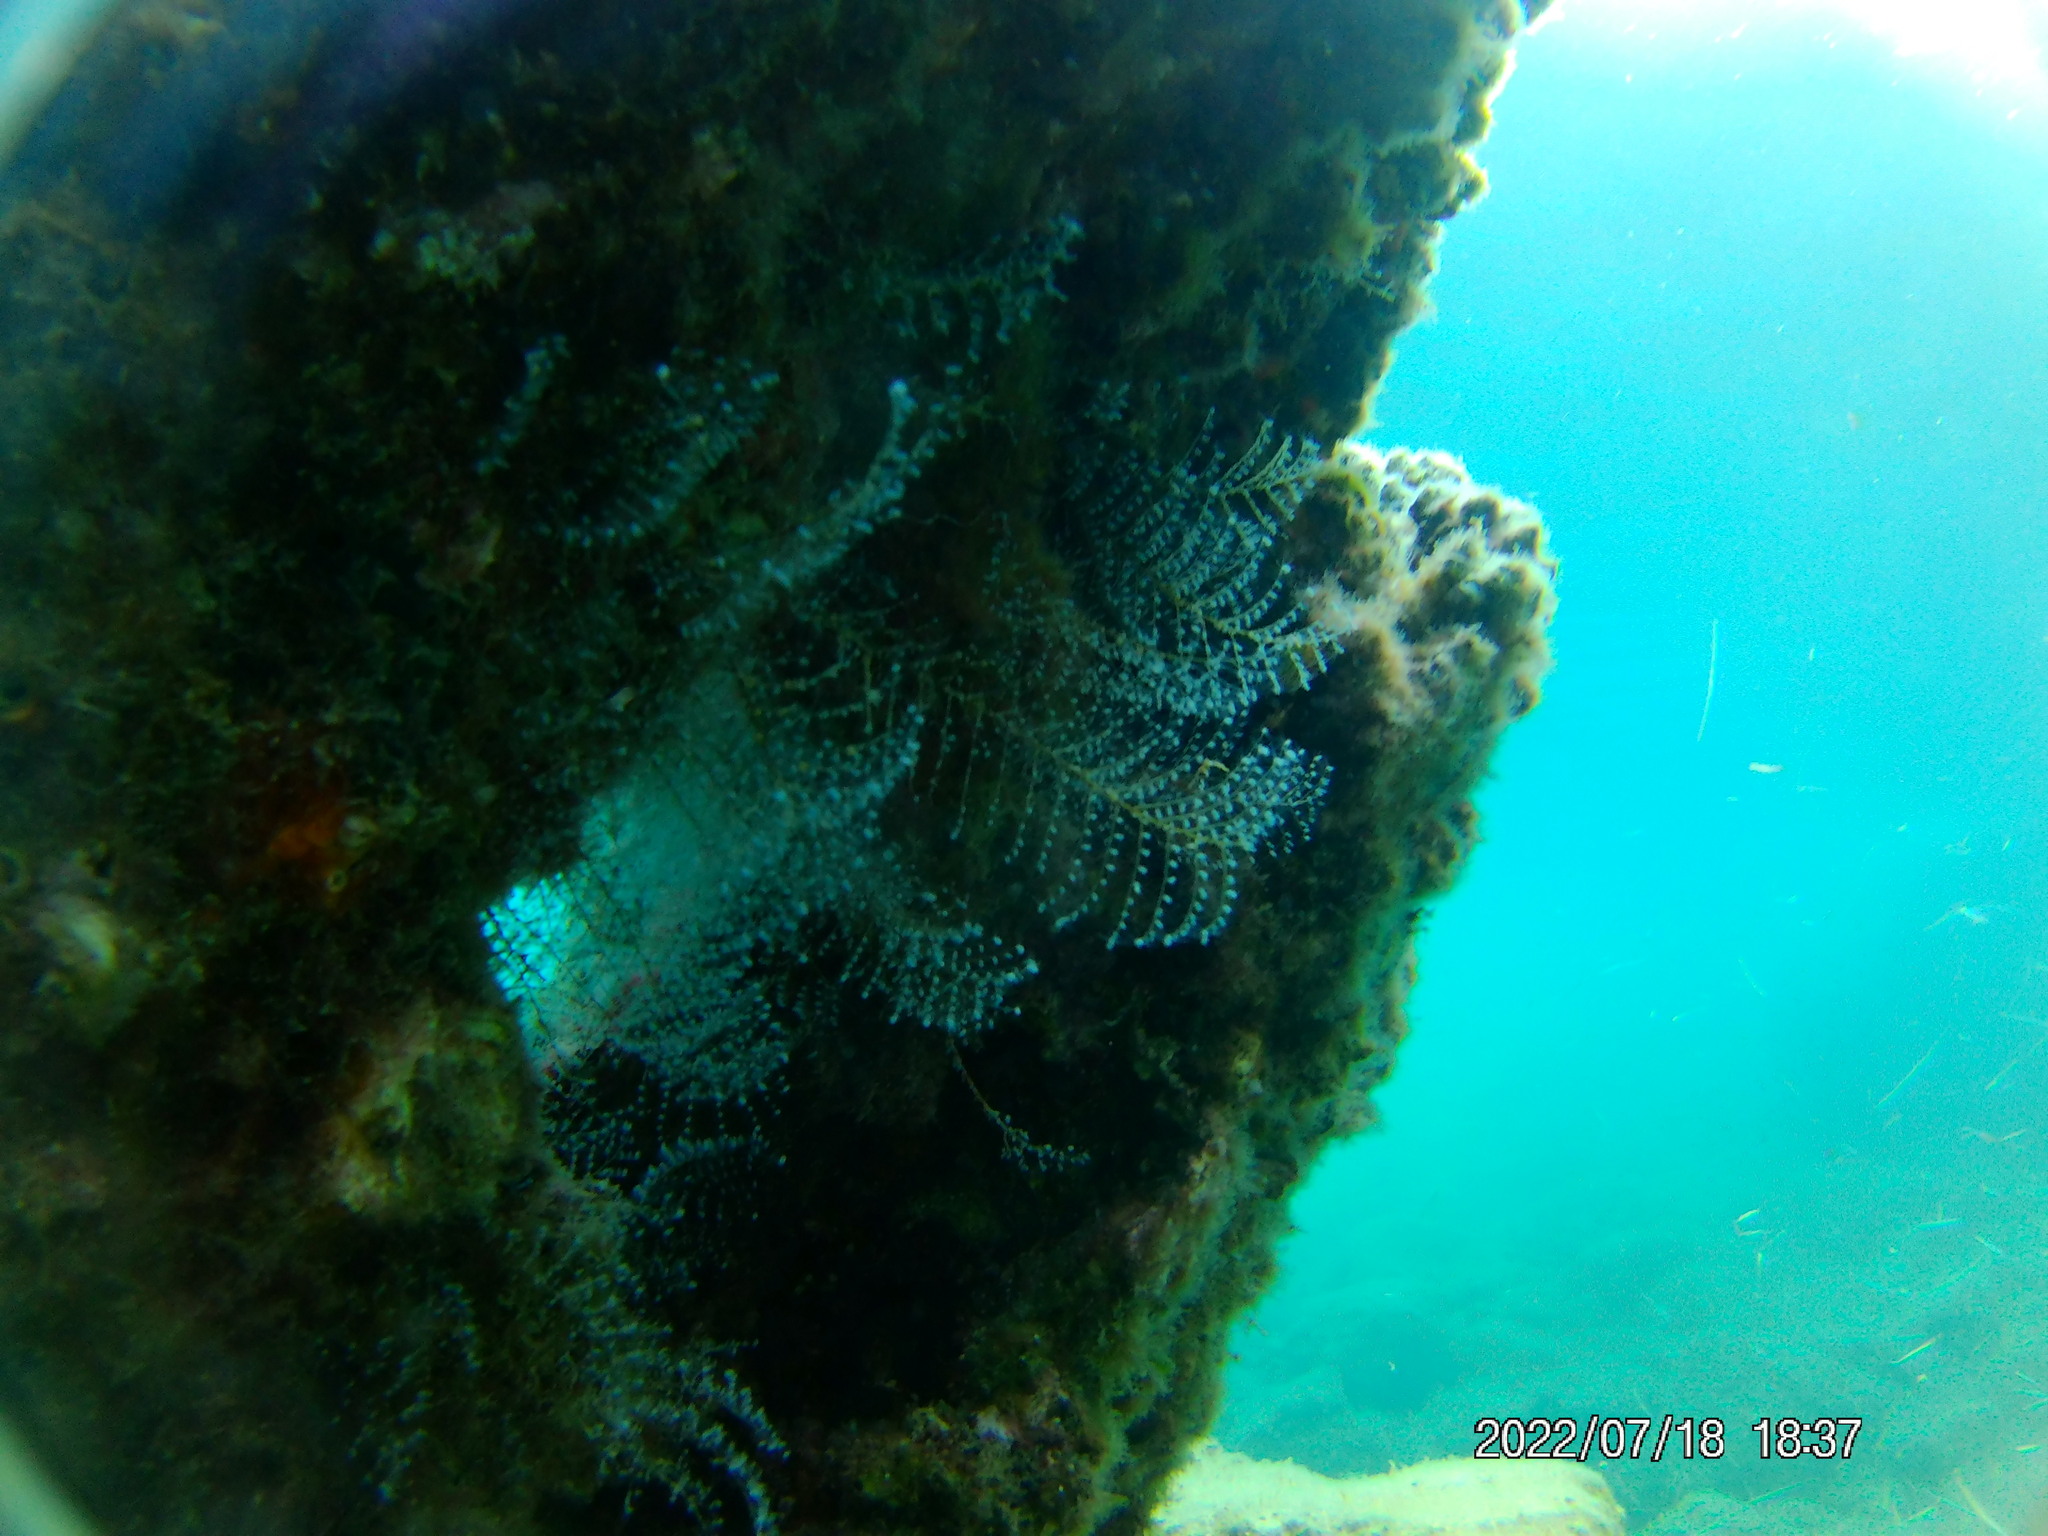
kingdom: Animalia
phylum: Cnidaria
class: Hydrozoa
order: Anthoathecata
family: Pennariidae
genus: Pennaria
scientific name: Pennaria disticha
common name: Feather hydroid
